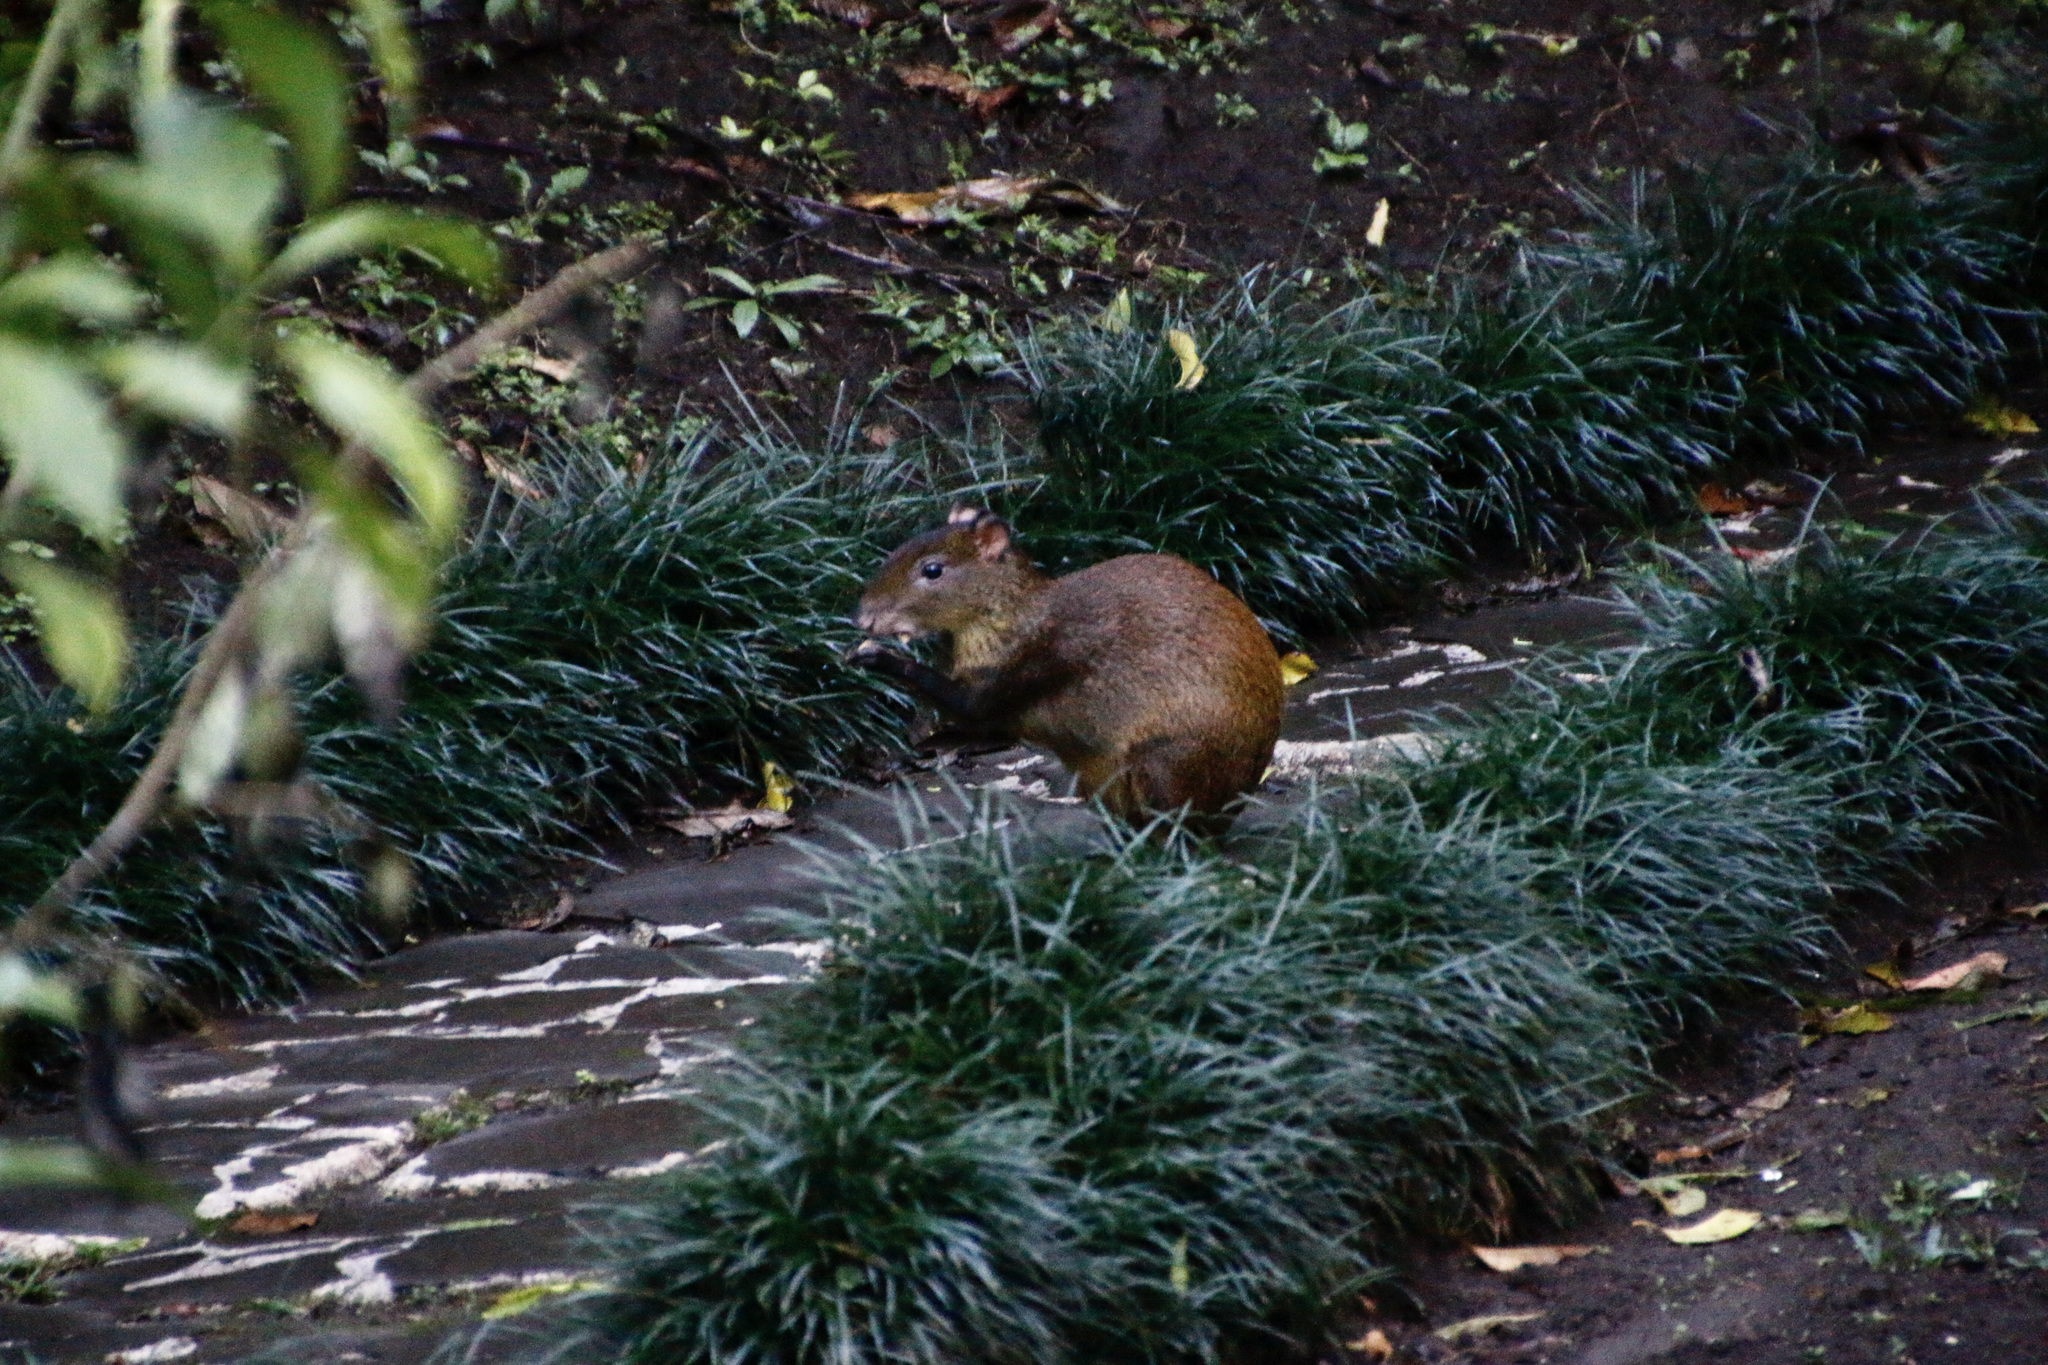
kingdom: Animalia
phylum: Chordata
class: Mammalia
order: Rodentia
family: Dasyproctidae
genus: Dasyprocta
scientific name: Dasyprocta punctata
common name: Central american agouti
